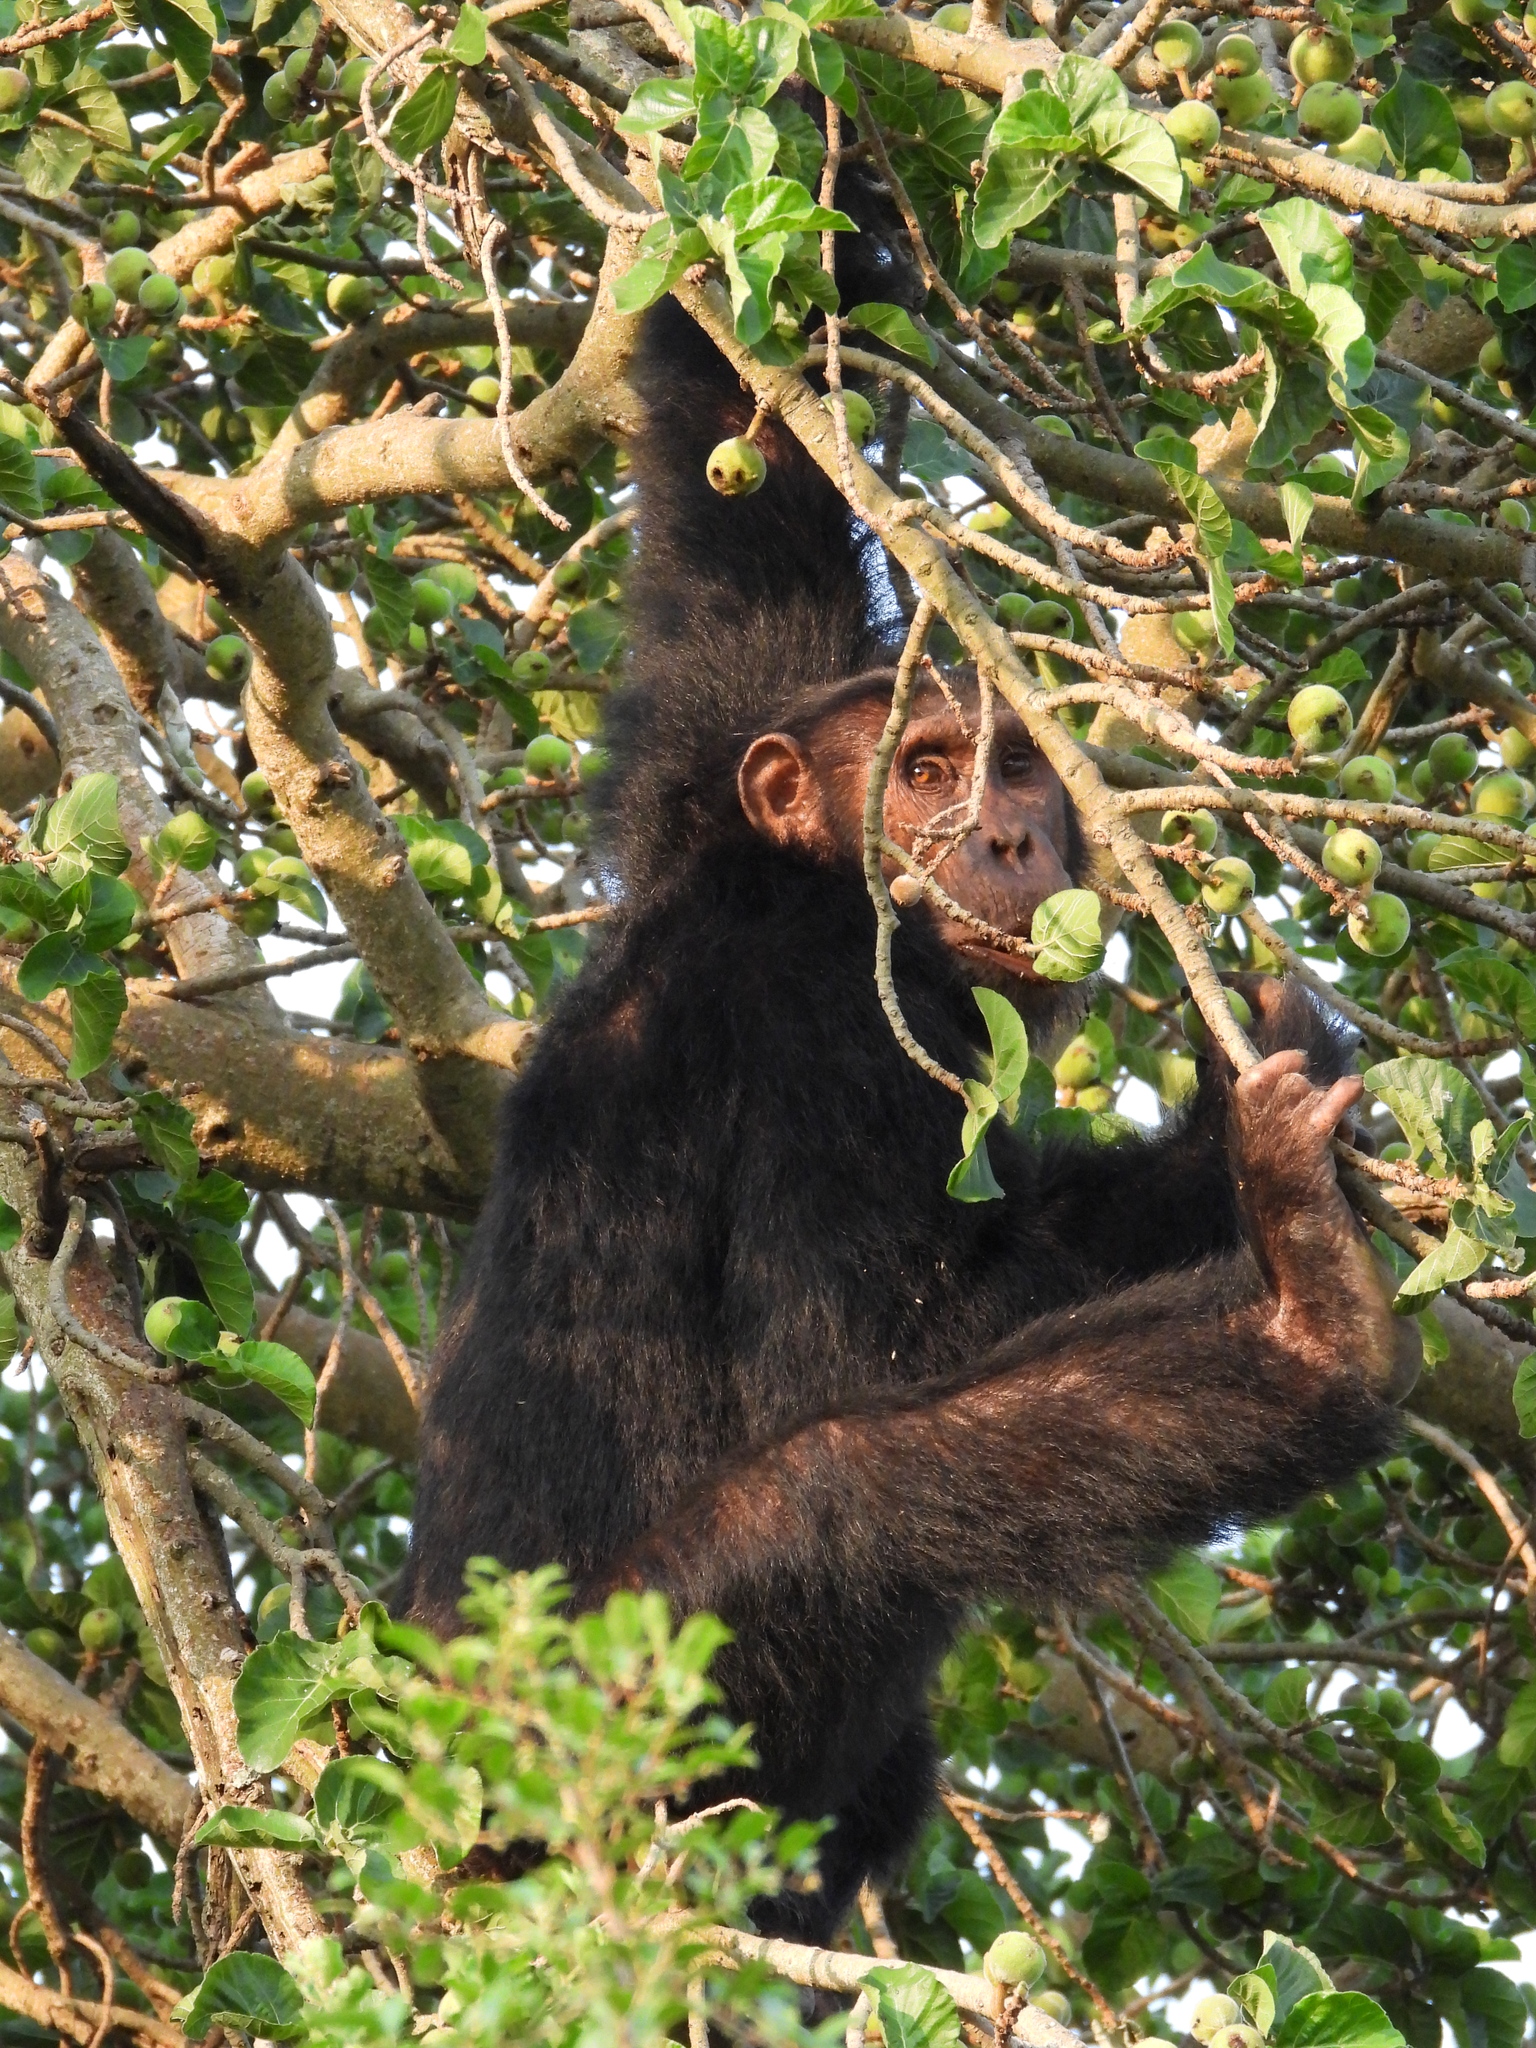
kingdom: Animalia
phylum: Chordata
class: Mammalia
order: Primates
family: Hominidae
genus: Pan
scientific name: Pan troglodytes
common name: Chimpanzee
